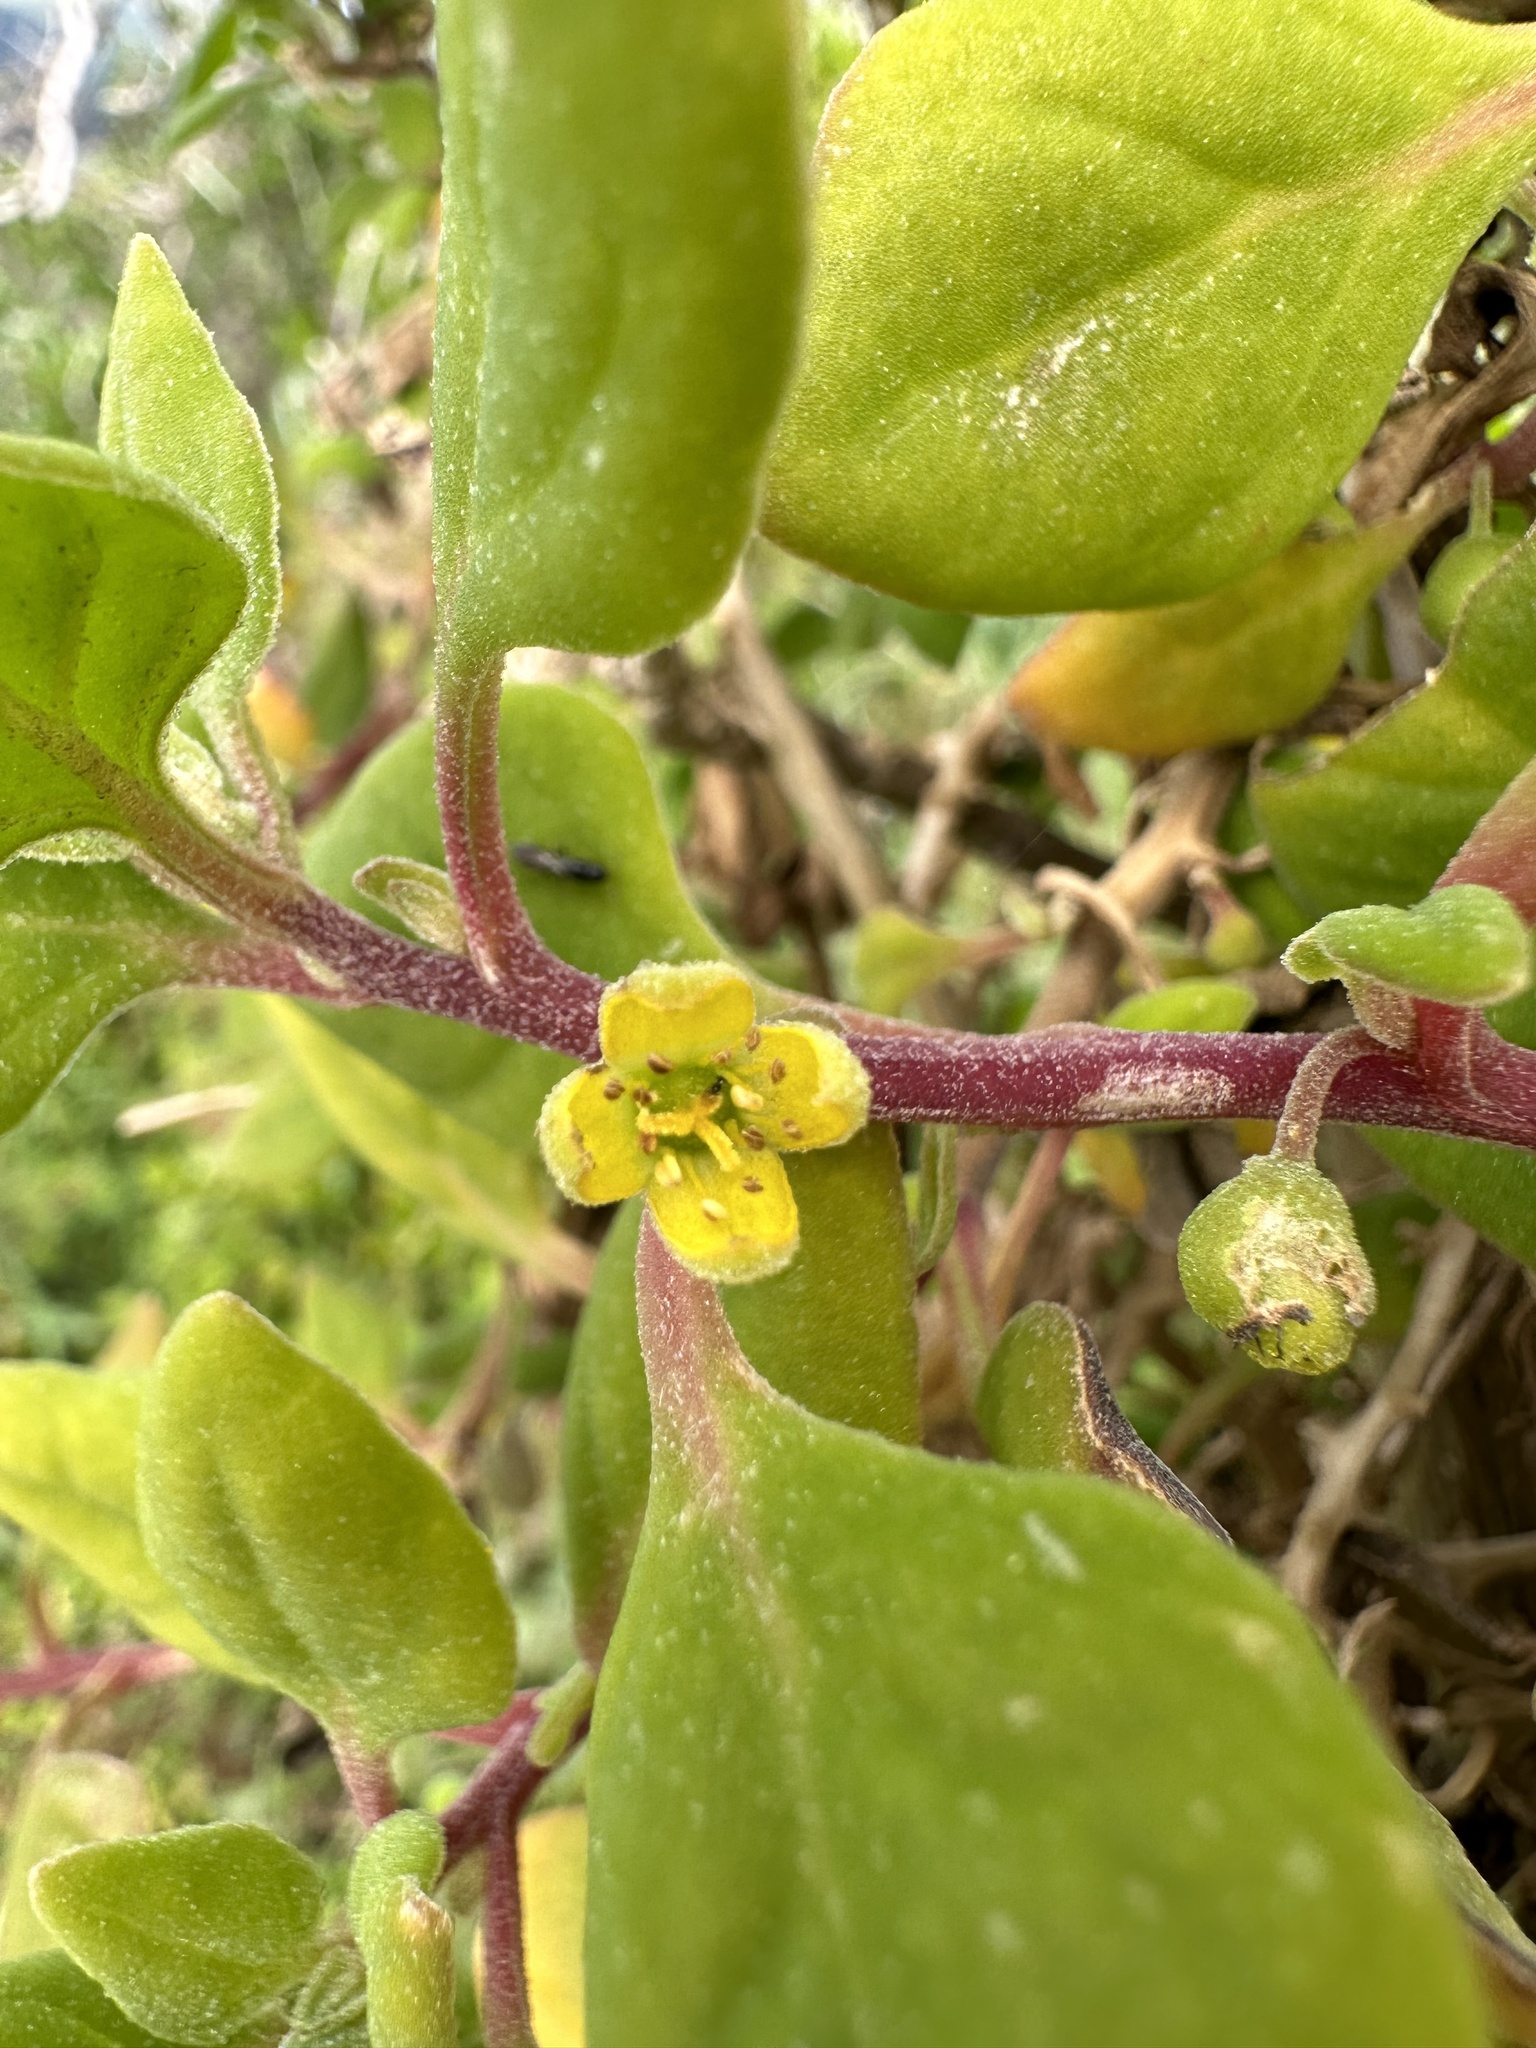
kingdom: Plantae
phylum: Tracheophyta
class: Magnoliopsida
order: Caryophyllales
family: Aizoaceae
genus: Tetragonia
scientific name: Tetragonia implexicoma
